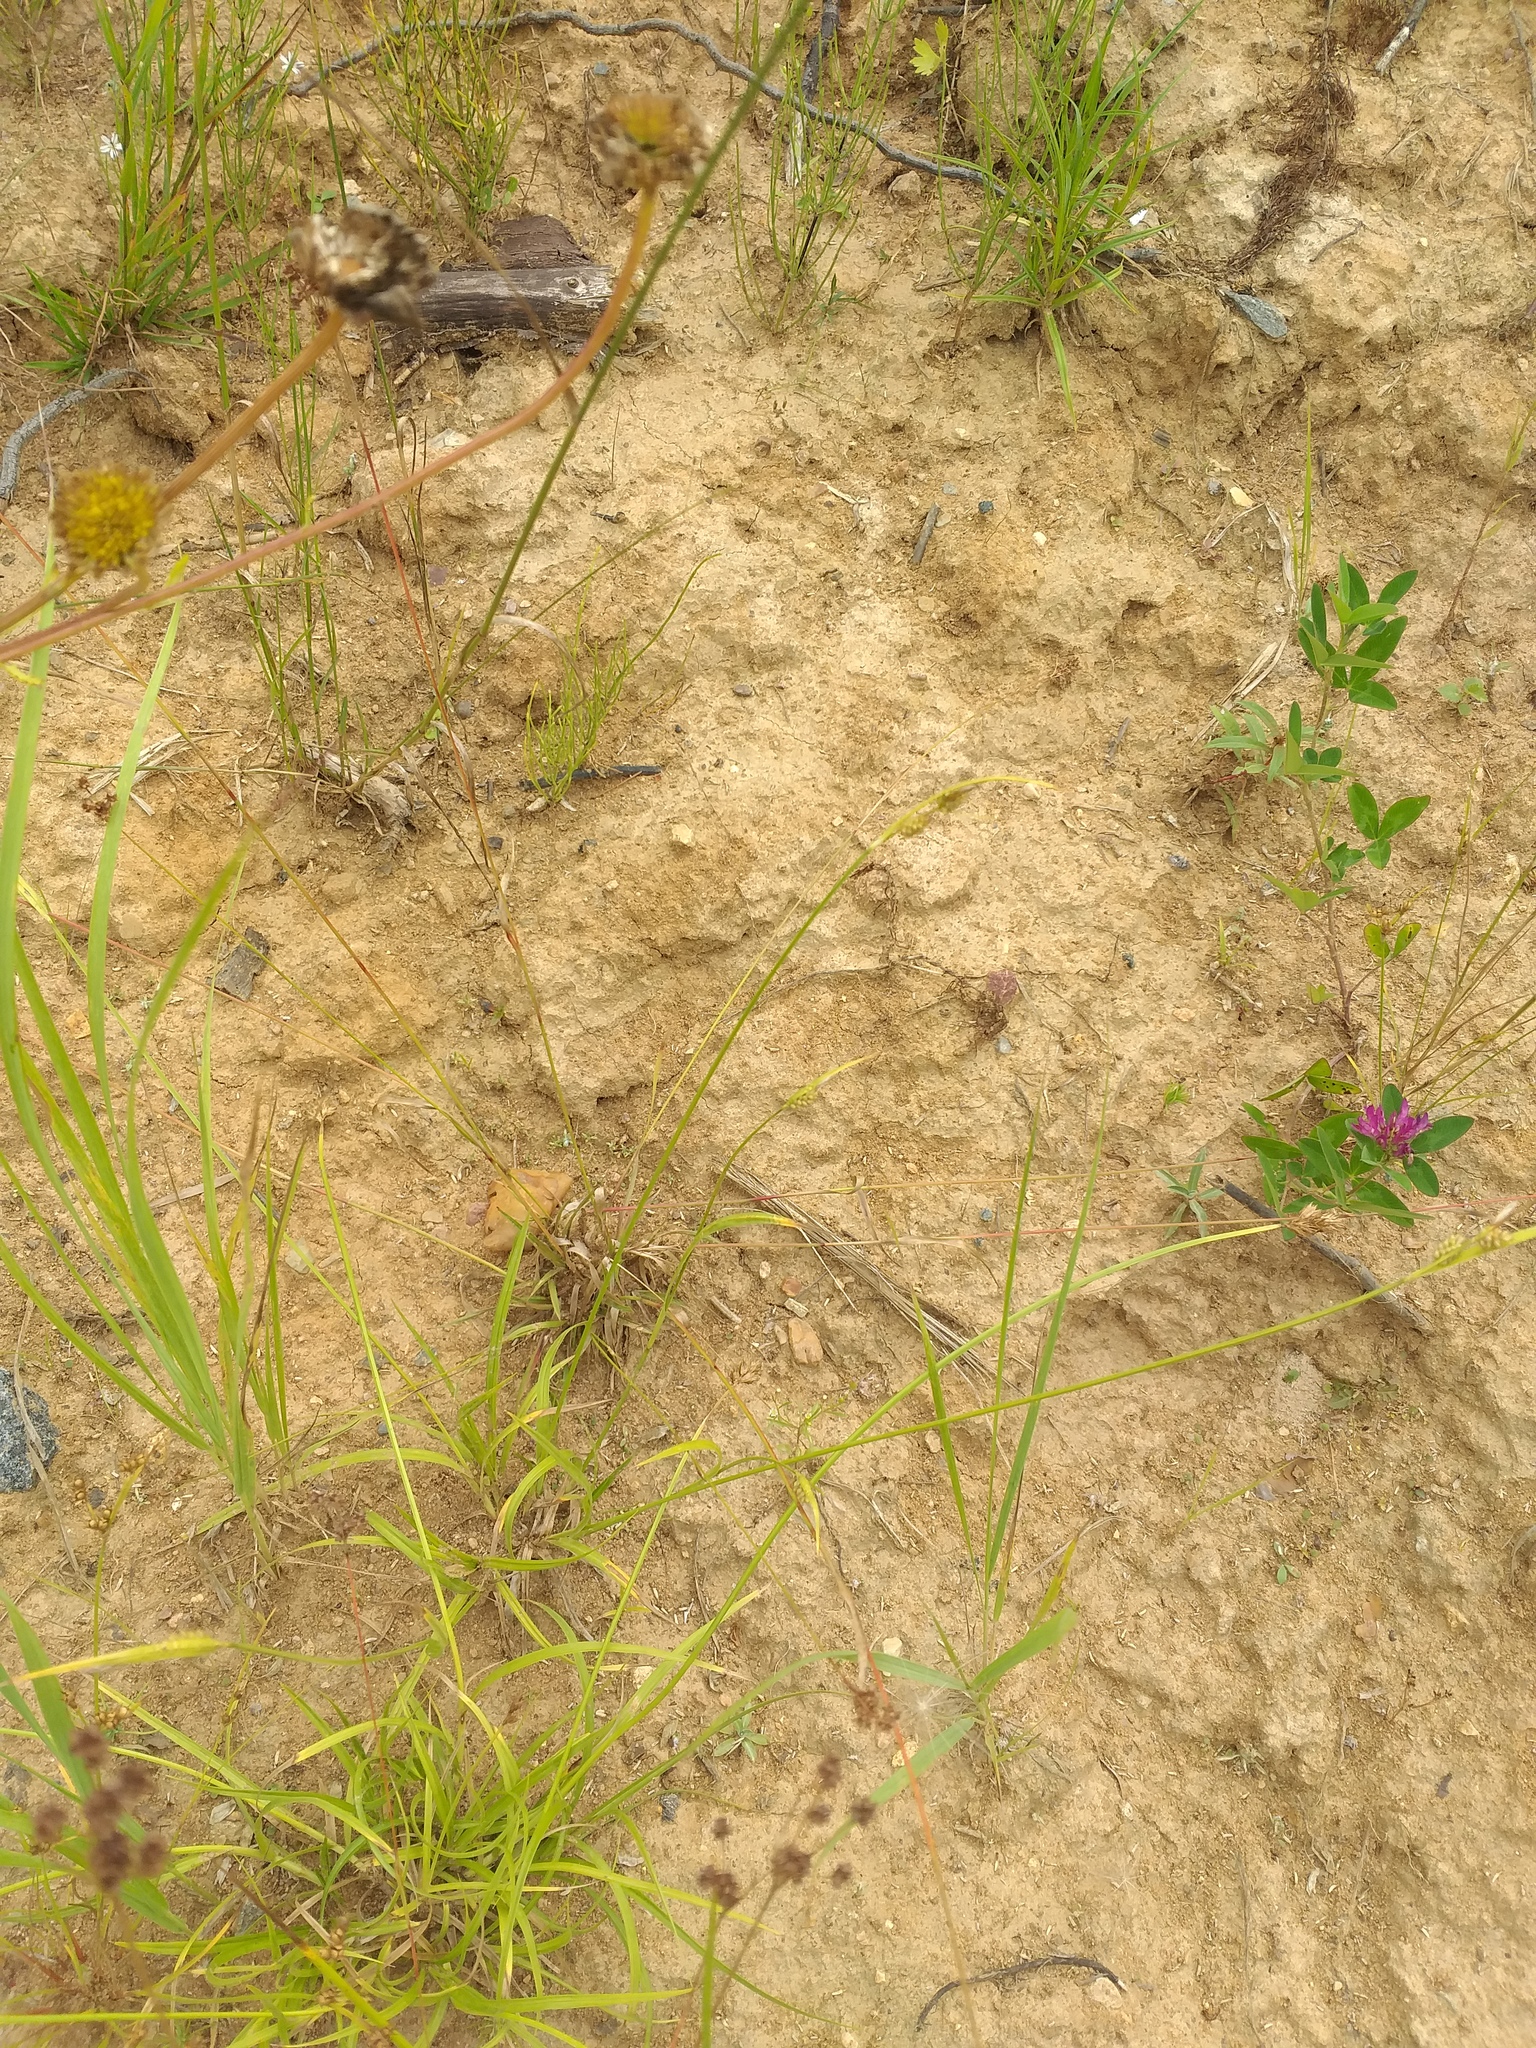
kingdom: Plantae
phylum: Tracheophyta
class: Liliopsida
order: Poales
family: Cyperaceae
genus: Carex
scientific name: Carex pallescens
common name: Pale sedge
